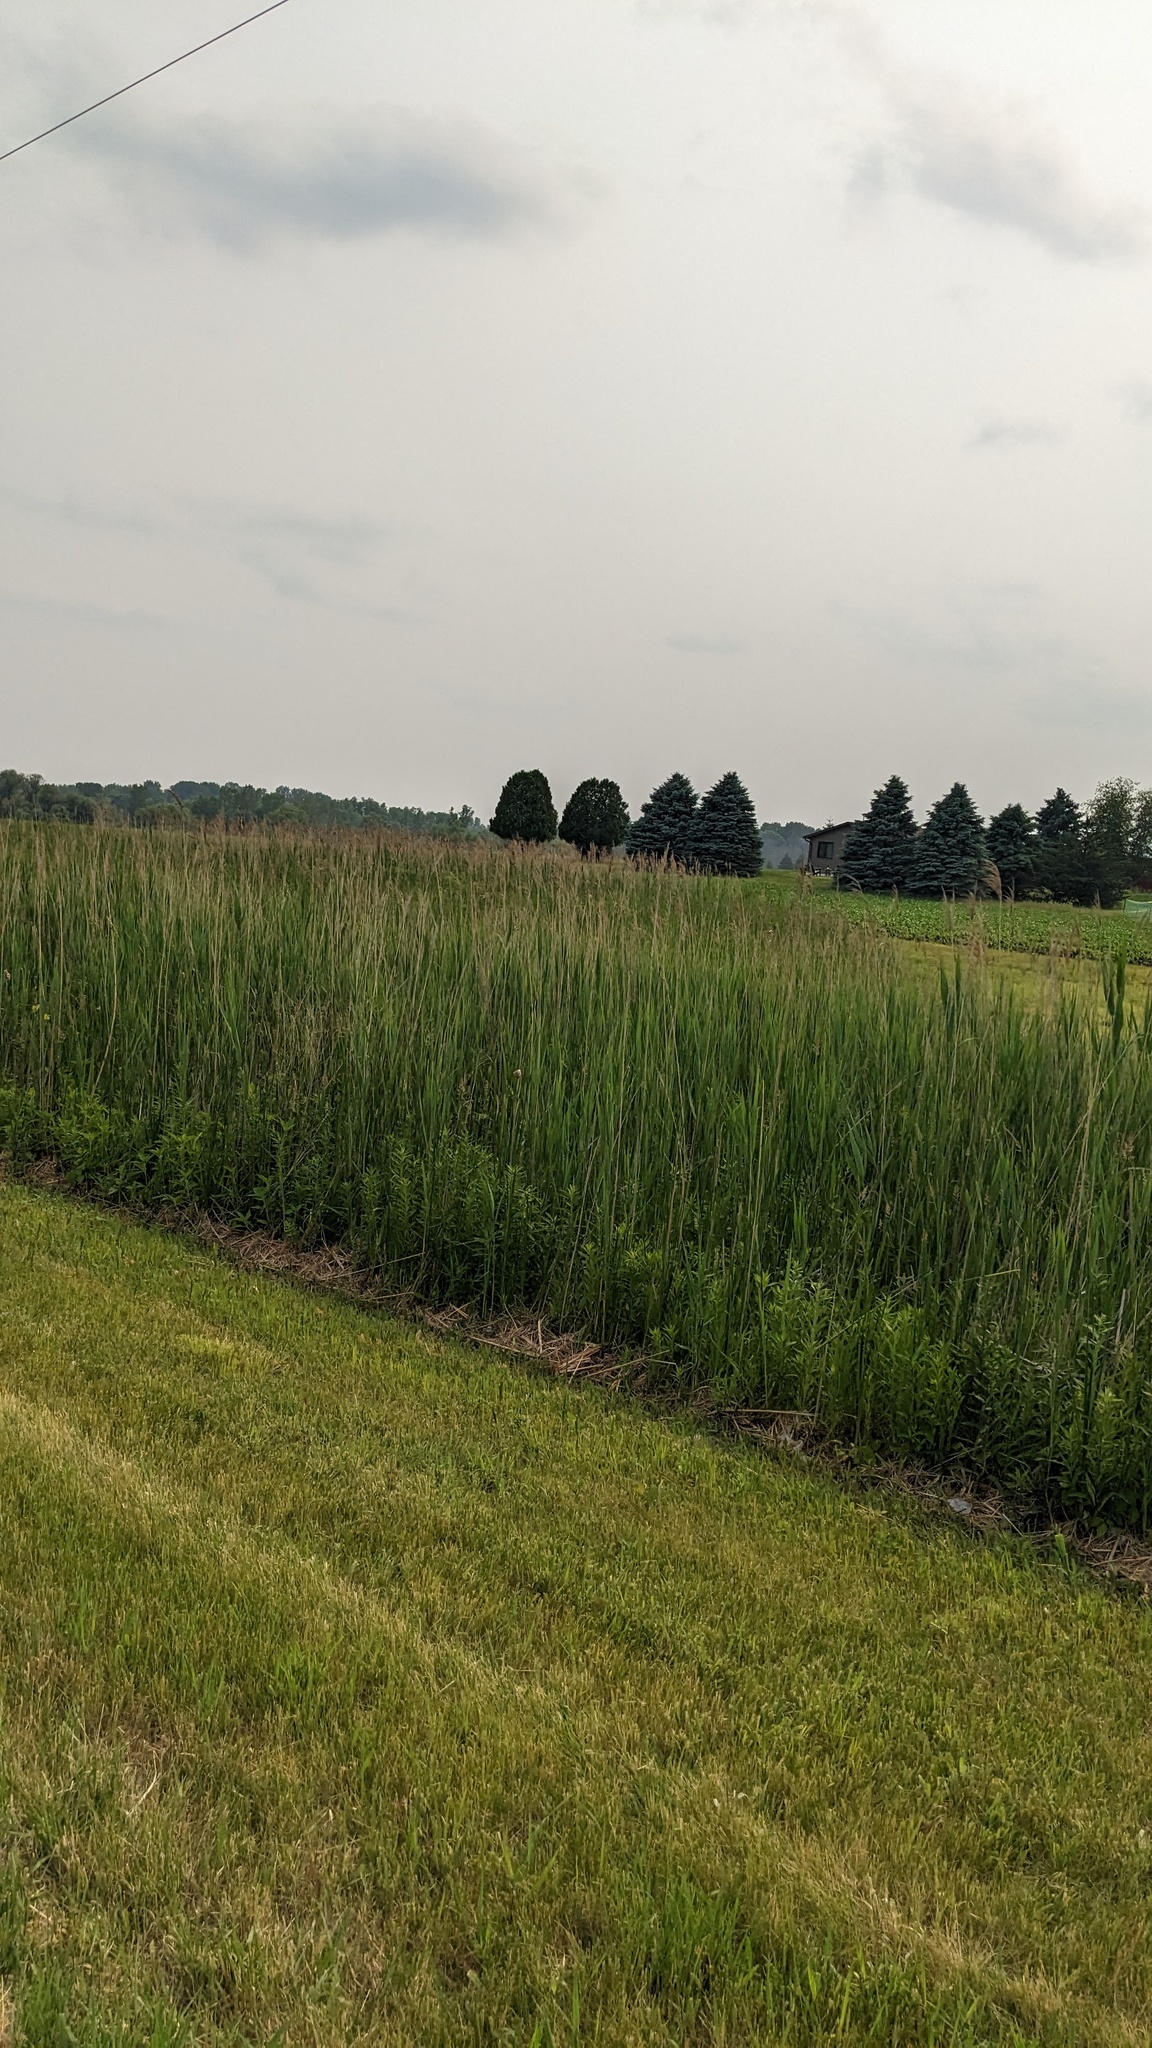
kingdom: Plantae
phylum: Tracheophyta
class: Liliopsida
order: Poales
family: Poaceae
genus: Phragmites
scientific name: Phragmites australis
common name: Common reed
